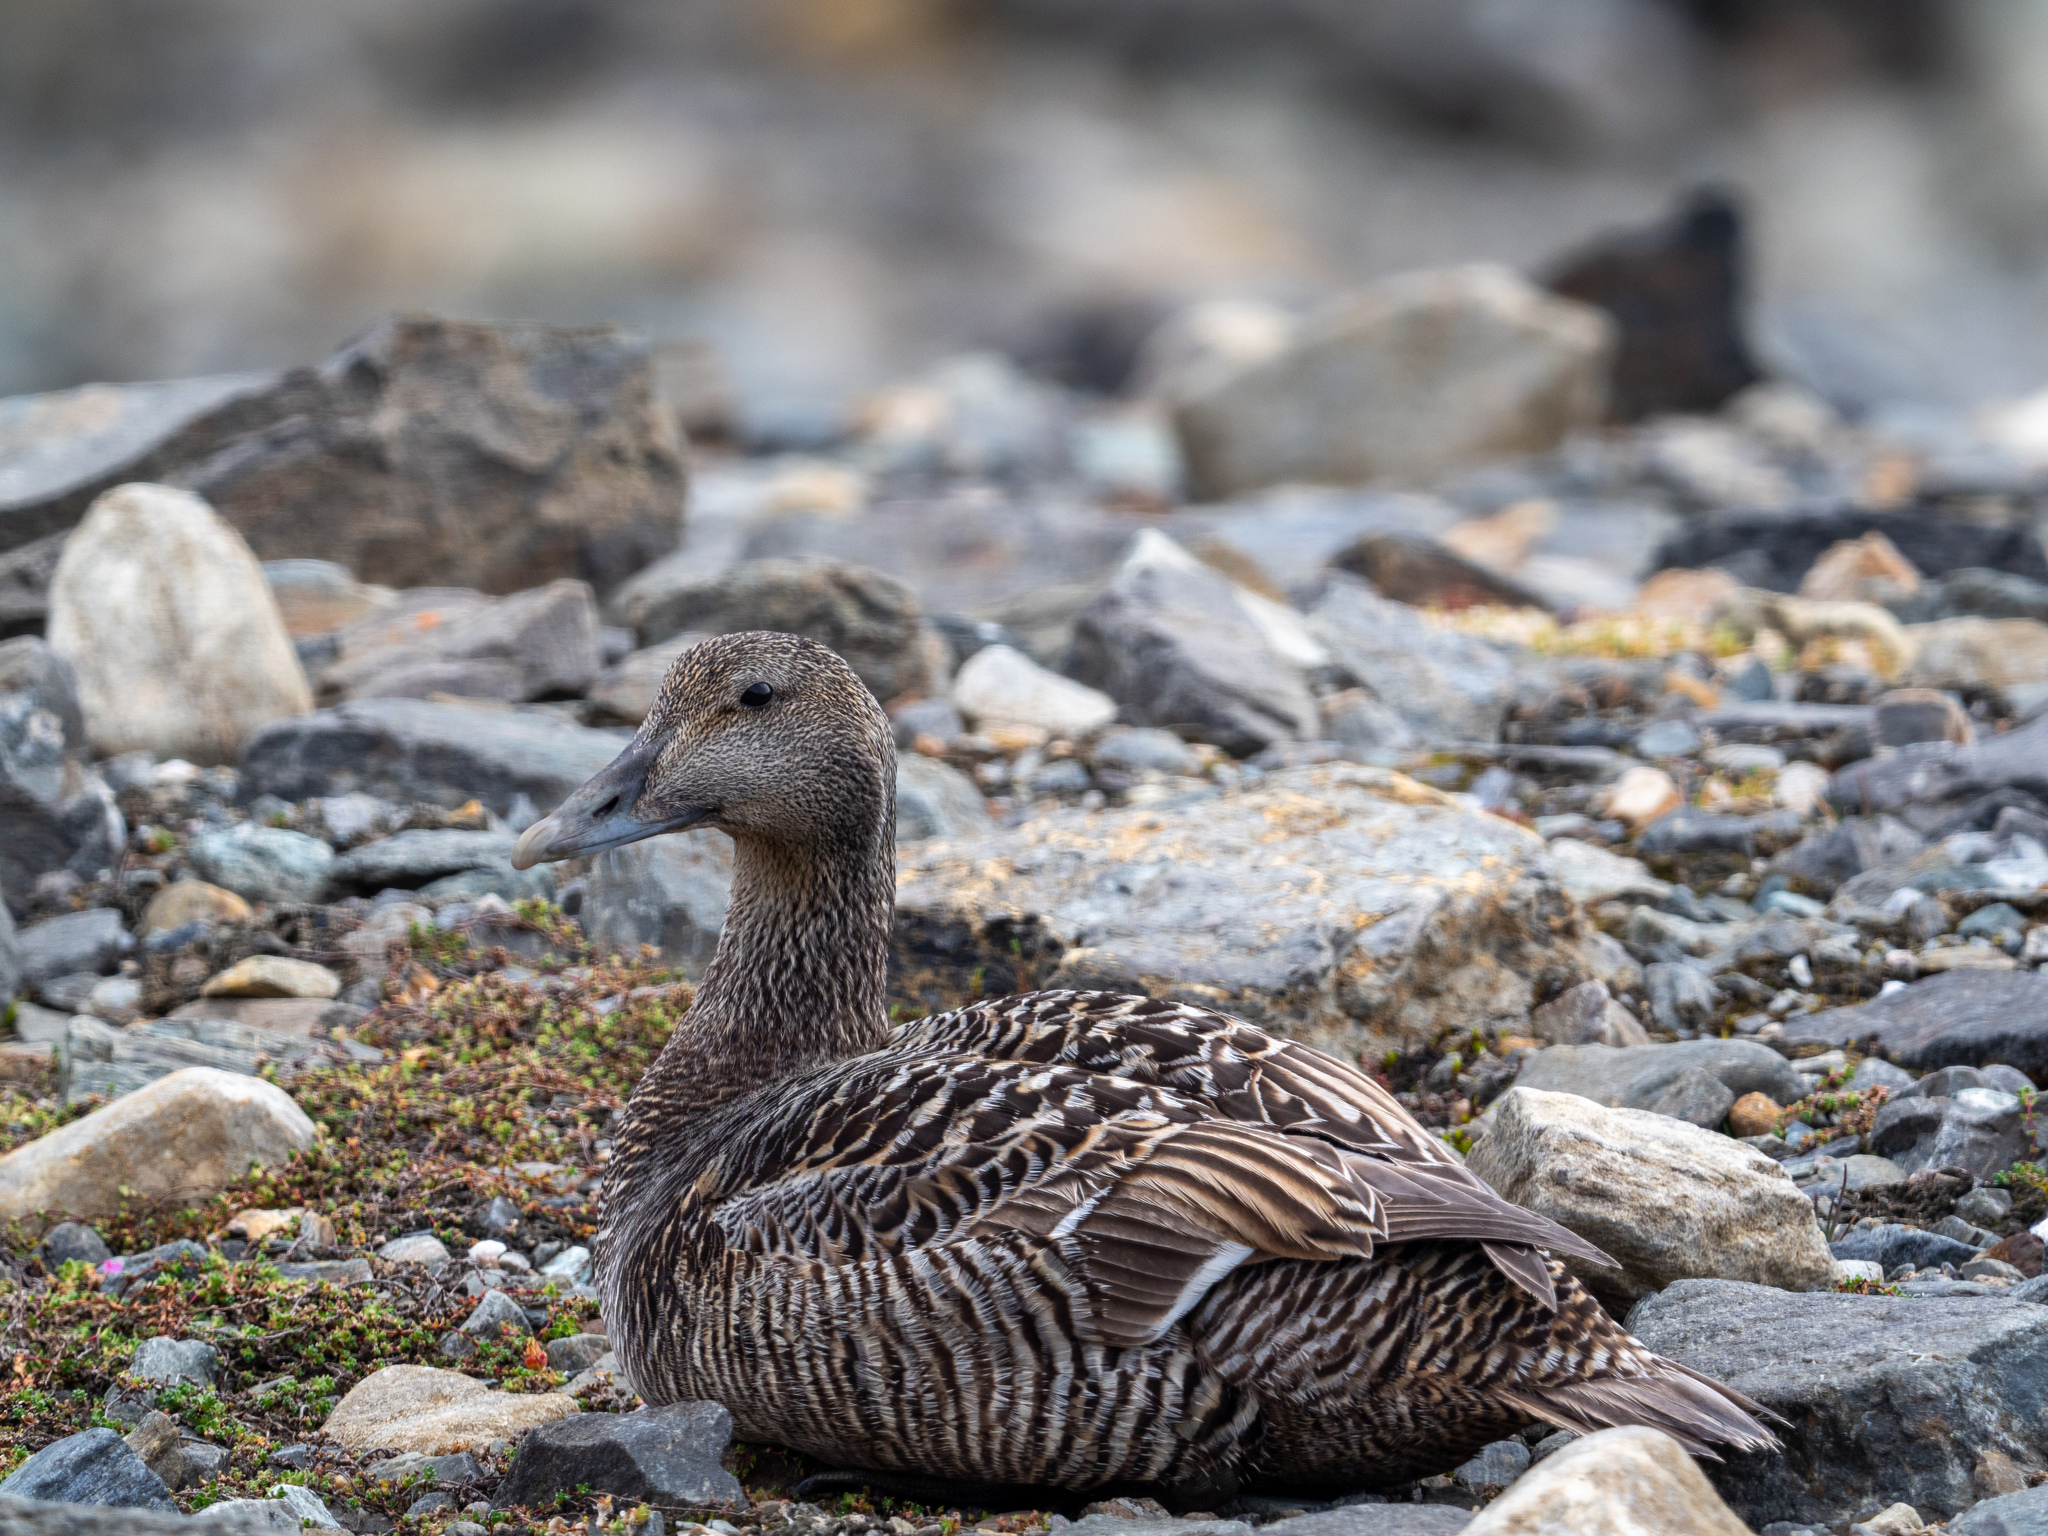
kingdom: Animalia
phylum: Chordata
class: Aves
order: Anseriformes
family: Anatidae
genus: Somateria
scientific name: Somateria mollissima
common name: Common eider
